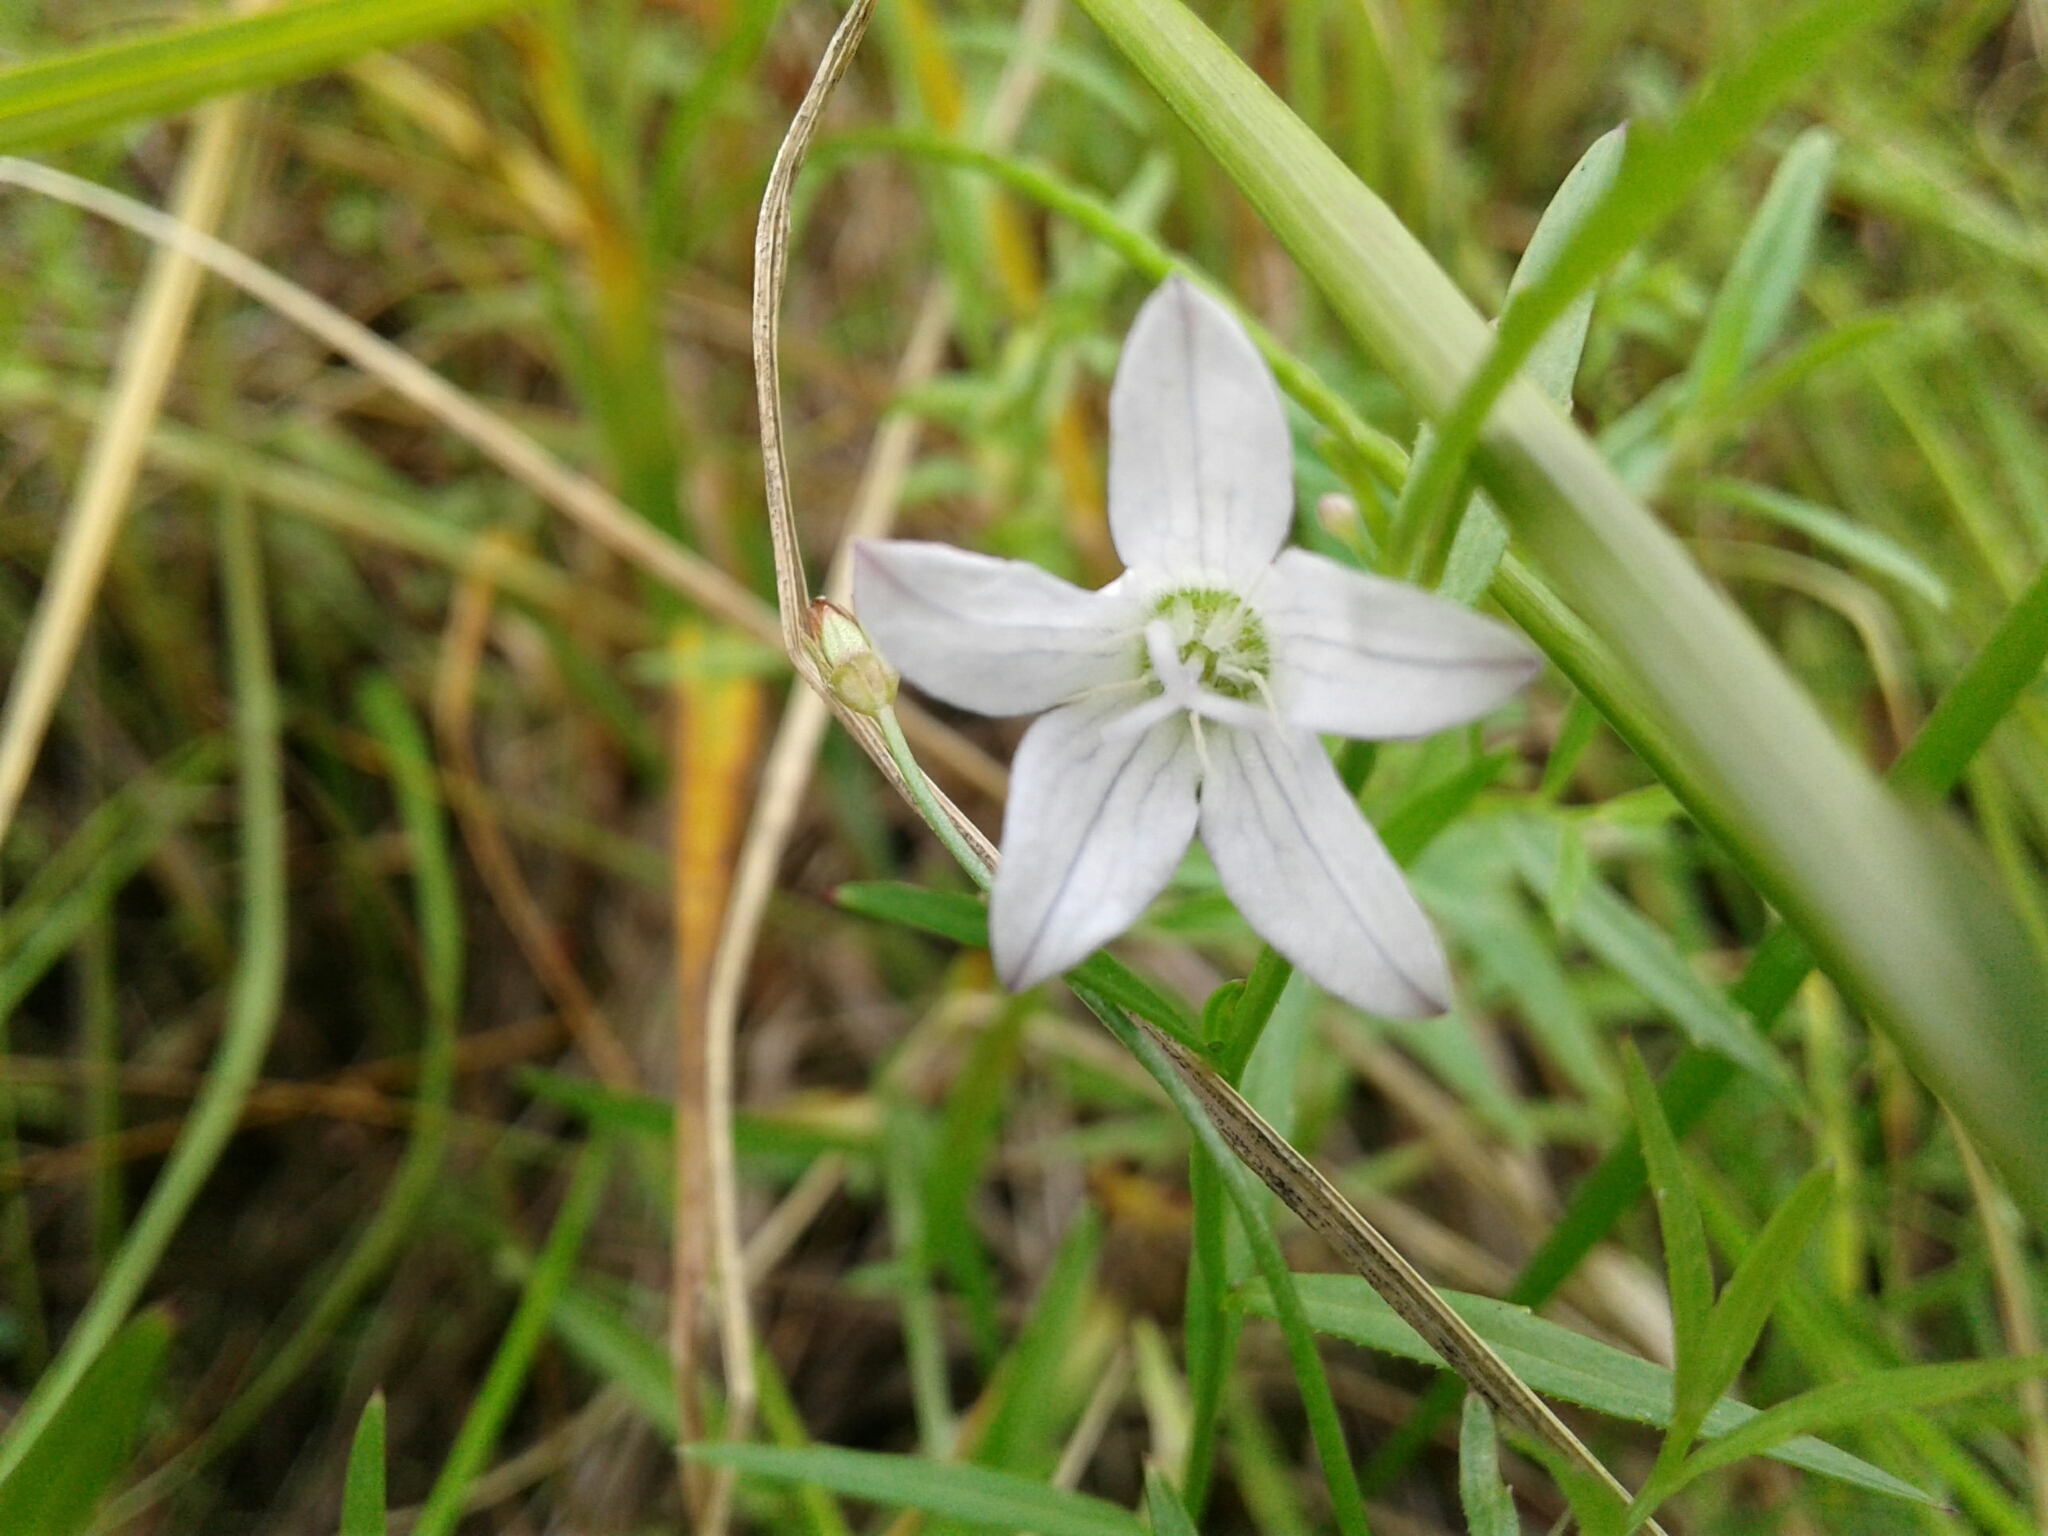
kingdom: Plantae
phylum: Tracheophyta
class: Magnoliopsida
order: Asterales
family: Campanulaceae
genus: Palustricodon
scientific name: Palustricodon aparinoides
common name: Bedstraw bellflower
